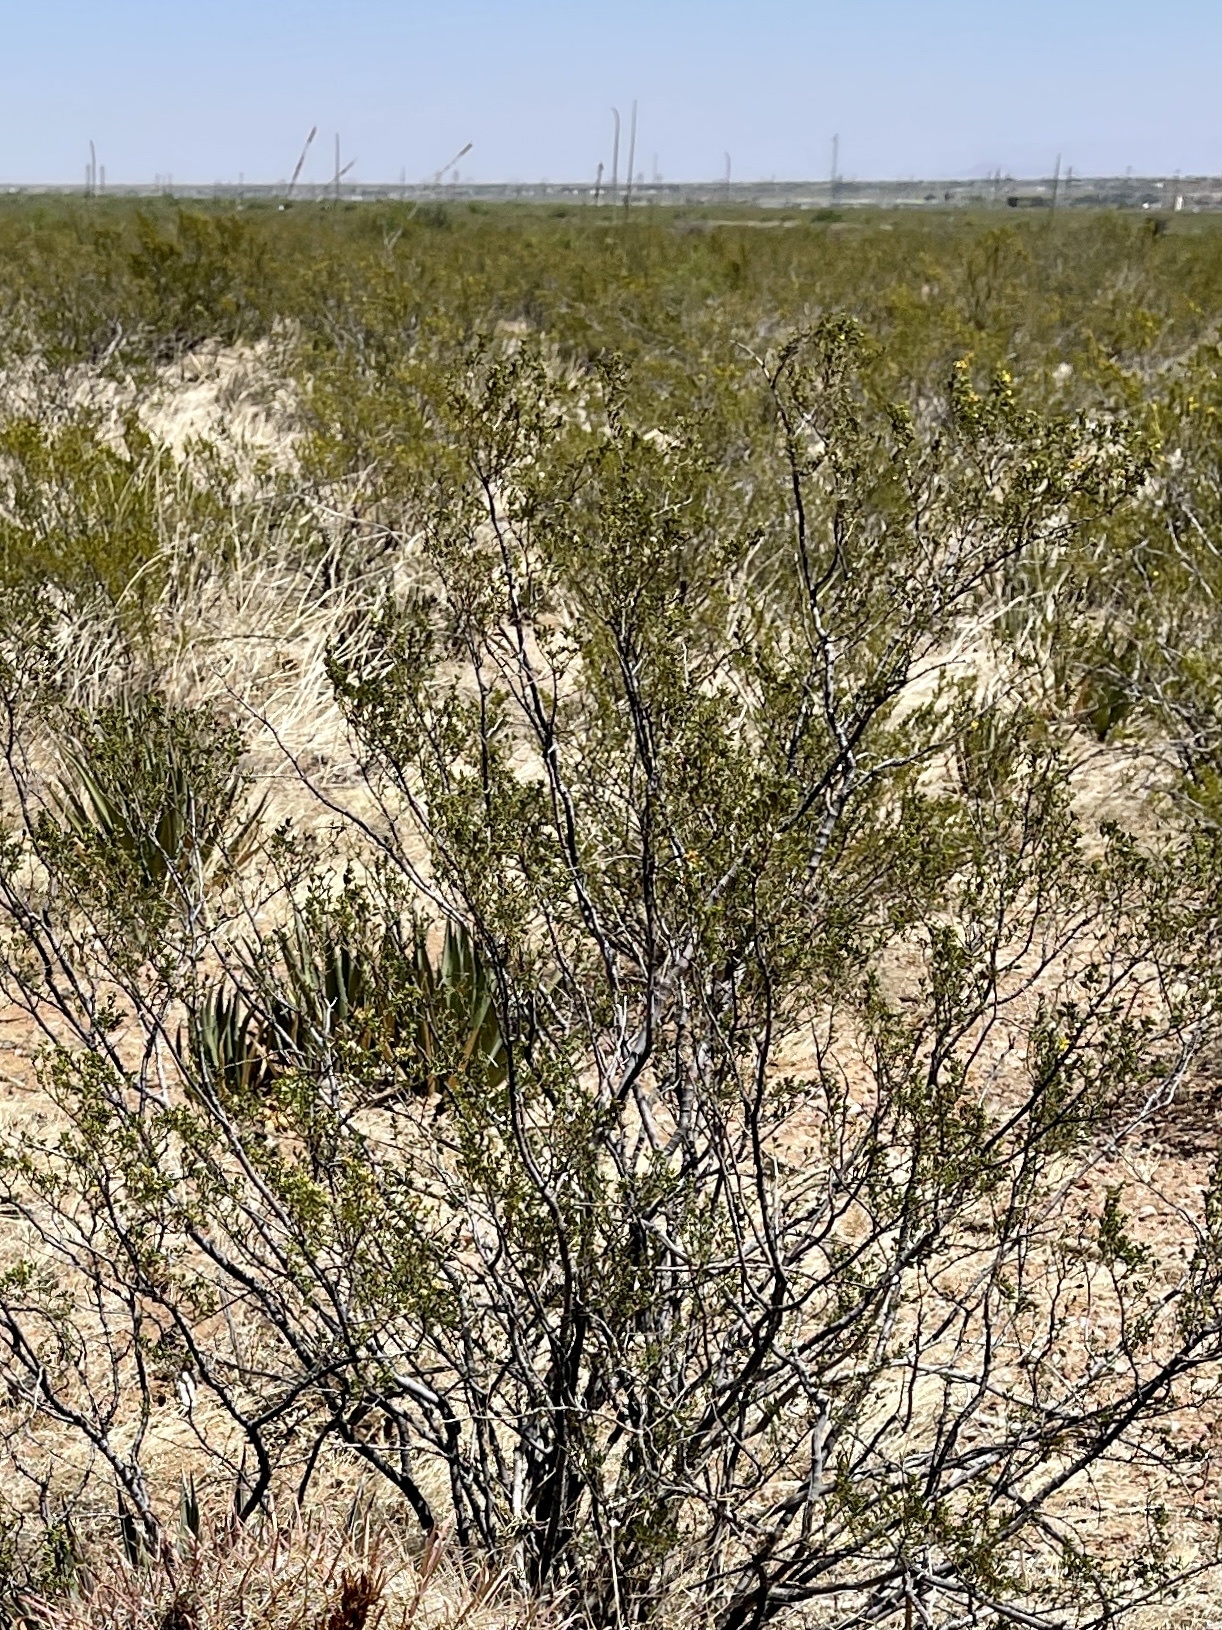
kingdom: Plantae
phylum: Tracheophyta
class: Magnoliopsida
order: Zygophyllales
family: Zygophyllaceae
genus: Larrea
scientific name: Larrea tridentata
